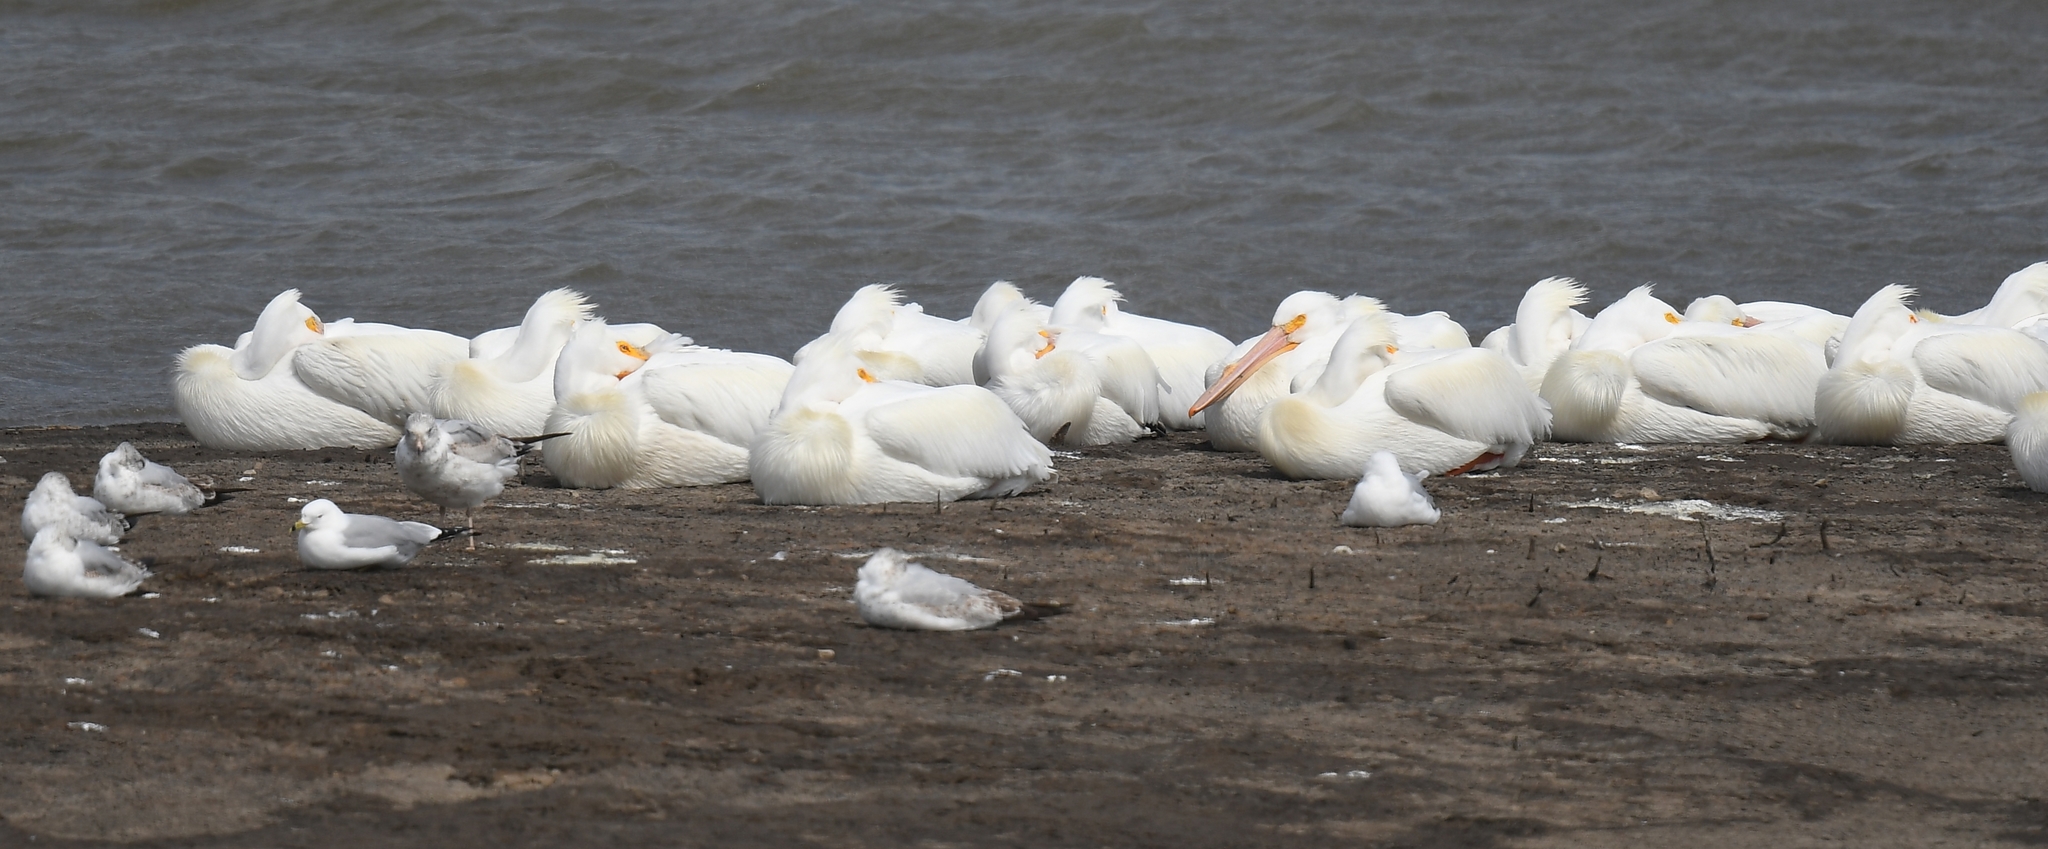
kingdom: Animalia
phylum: Chordata
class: Aves
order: Pelecaniformes
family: Pelecanidae
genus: Pelecanus
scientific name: Pelecanus erythrorhynchos
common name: American white pelican
